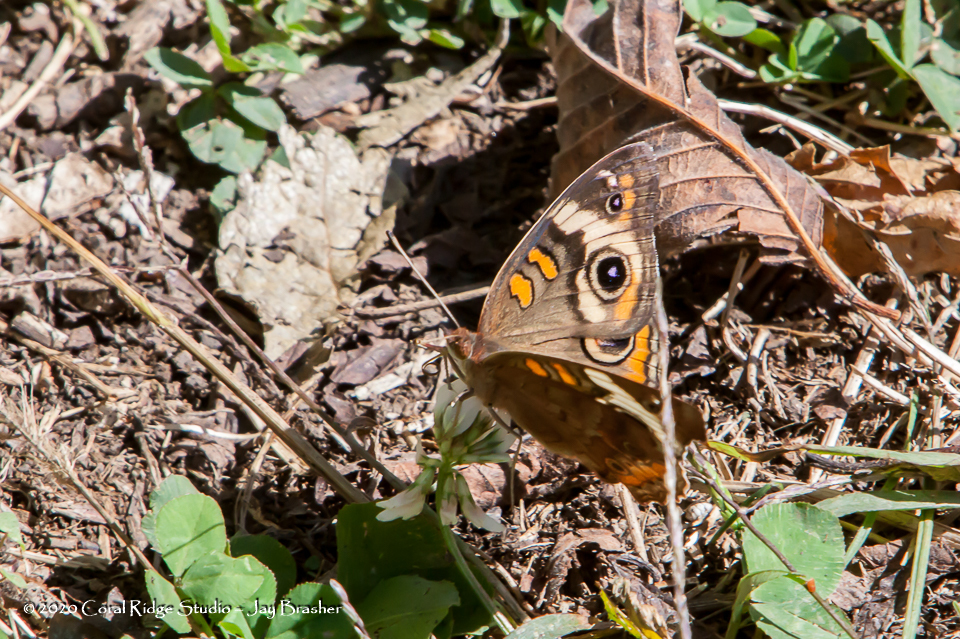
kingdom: Animalia
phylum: Arthropoda
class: Insecta
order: Lepidoptera
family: Nymphalidae
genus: Junonia
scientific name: Junonia coenia
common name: Common buckeye
